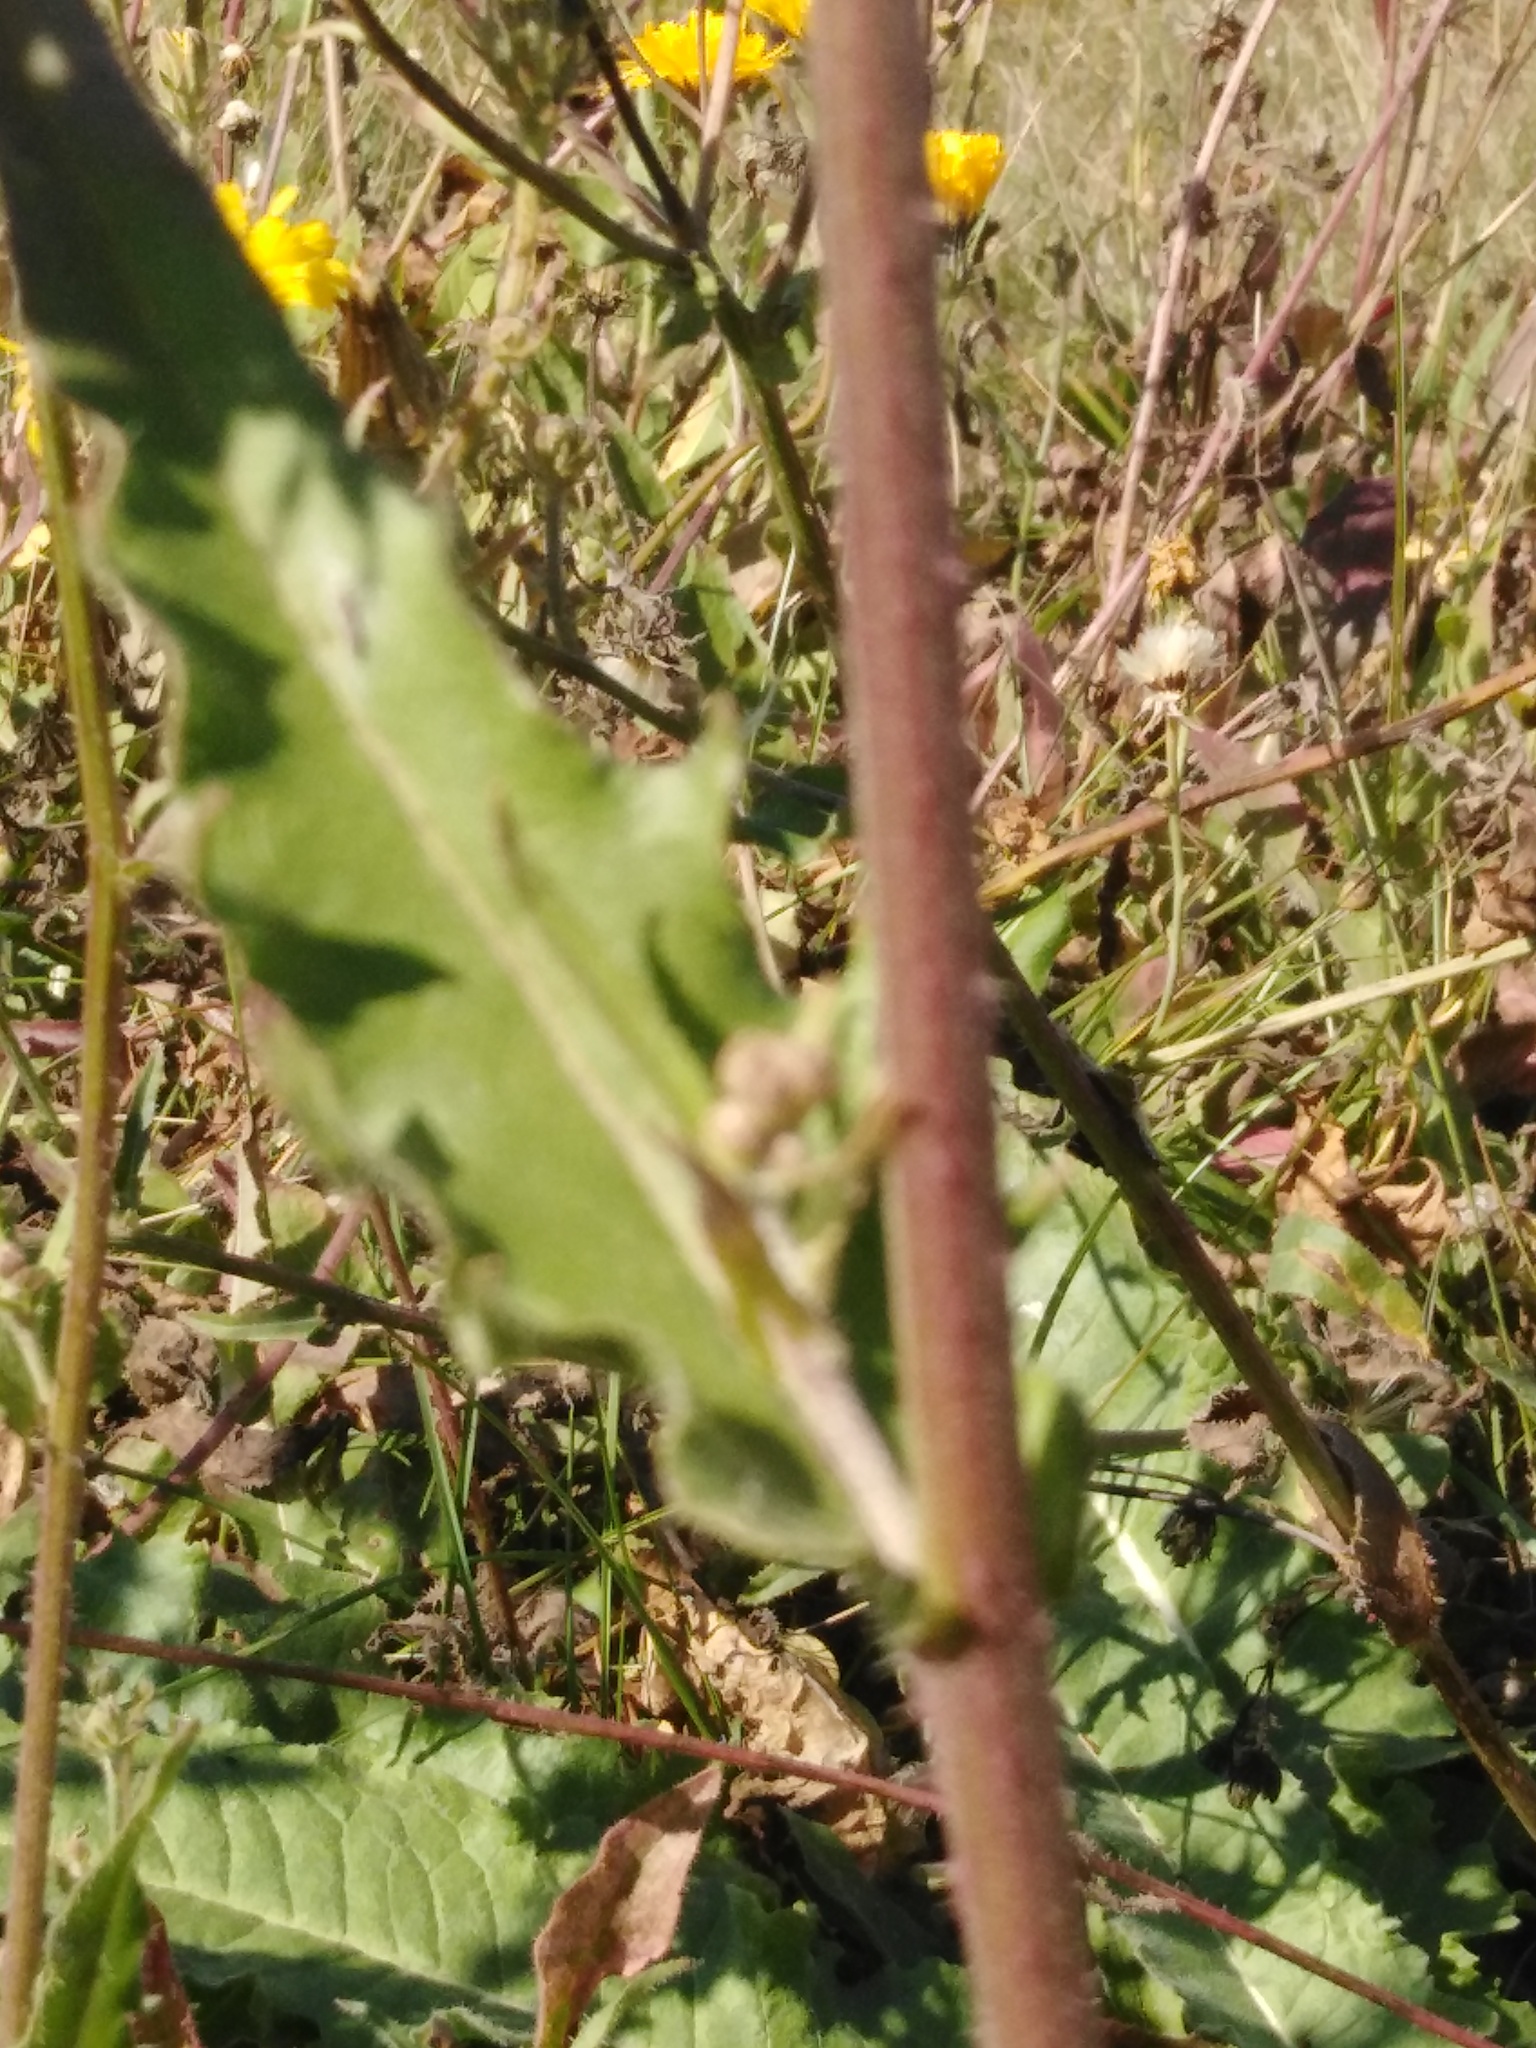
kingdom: Plantae
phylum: Tracheophyta
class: Magnoliopsida
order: Asterales
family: Asteraceae
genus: Picris
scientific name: Picris hieracioides
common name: Hawkweed oxtongue
